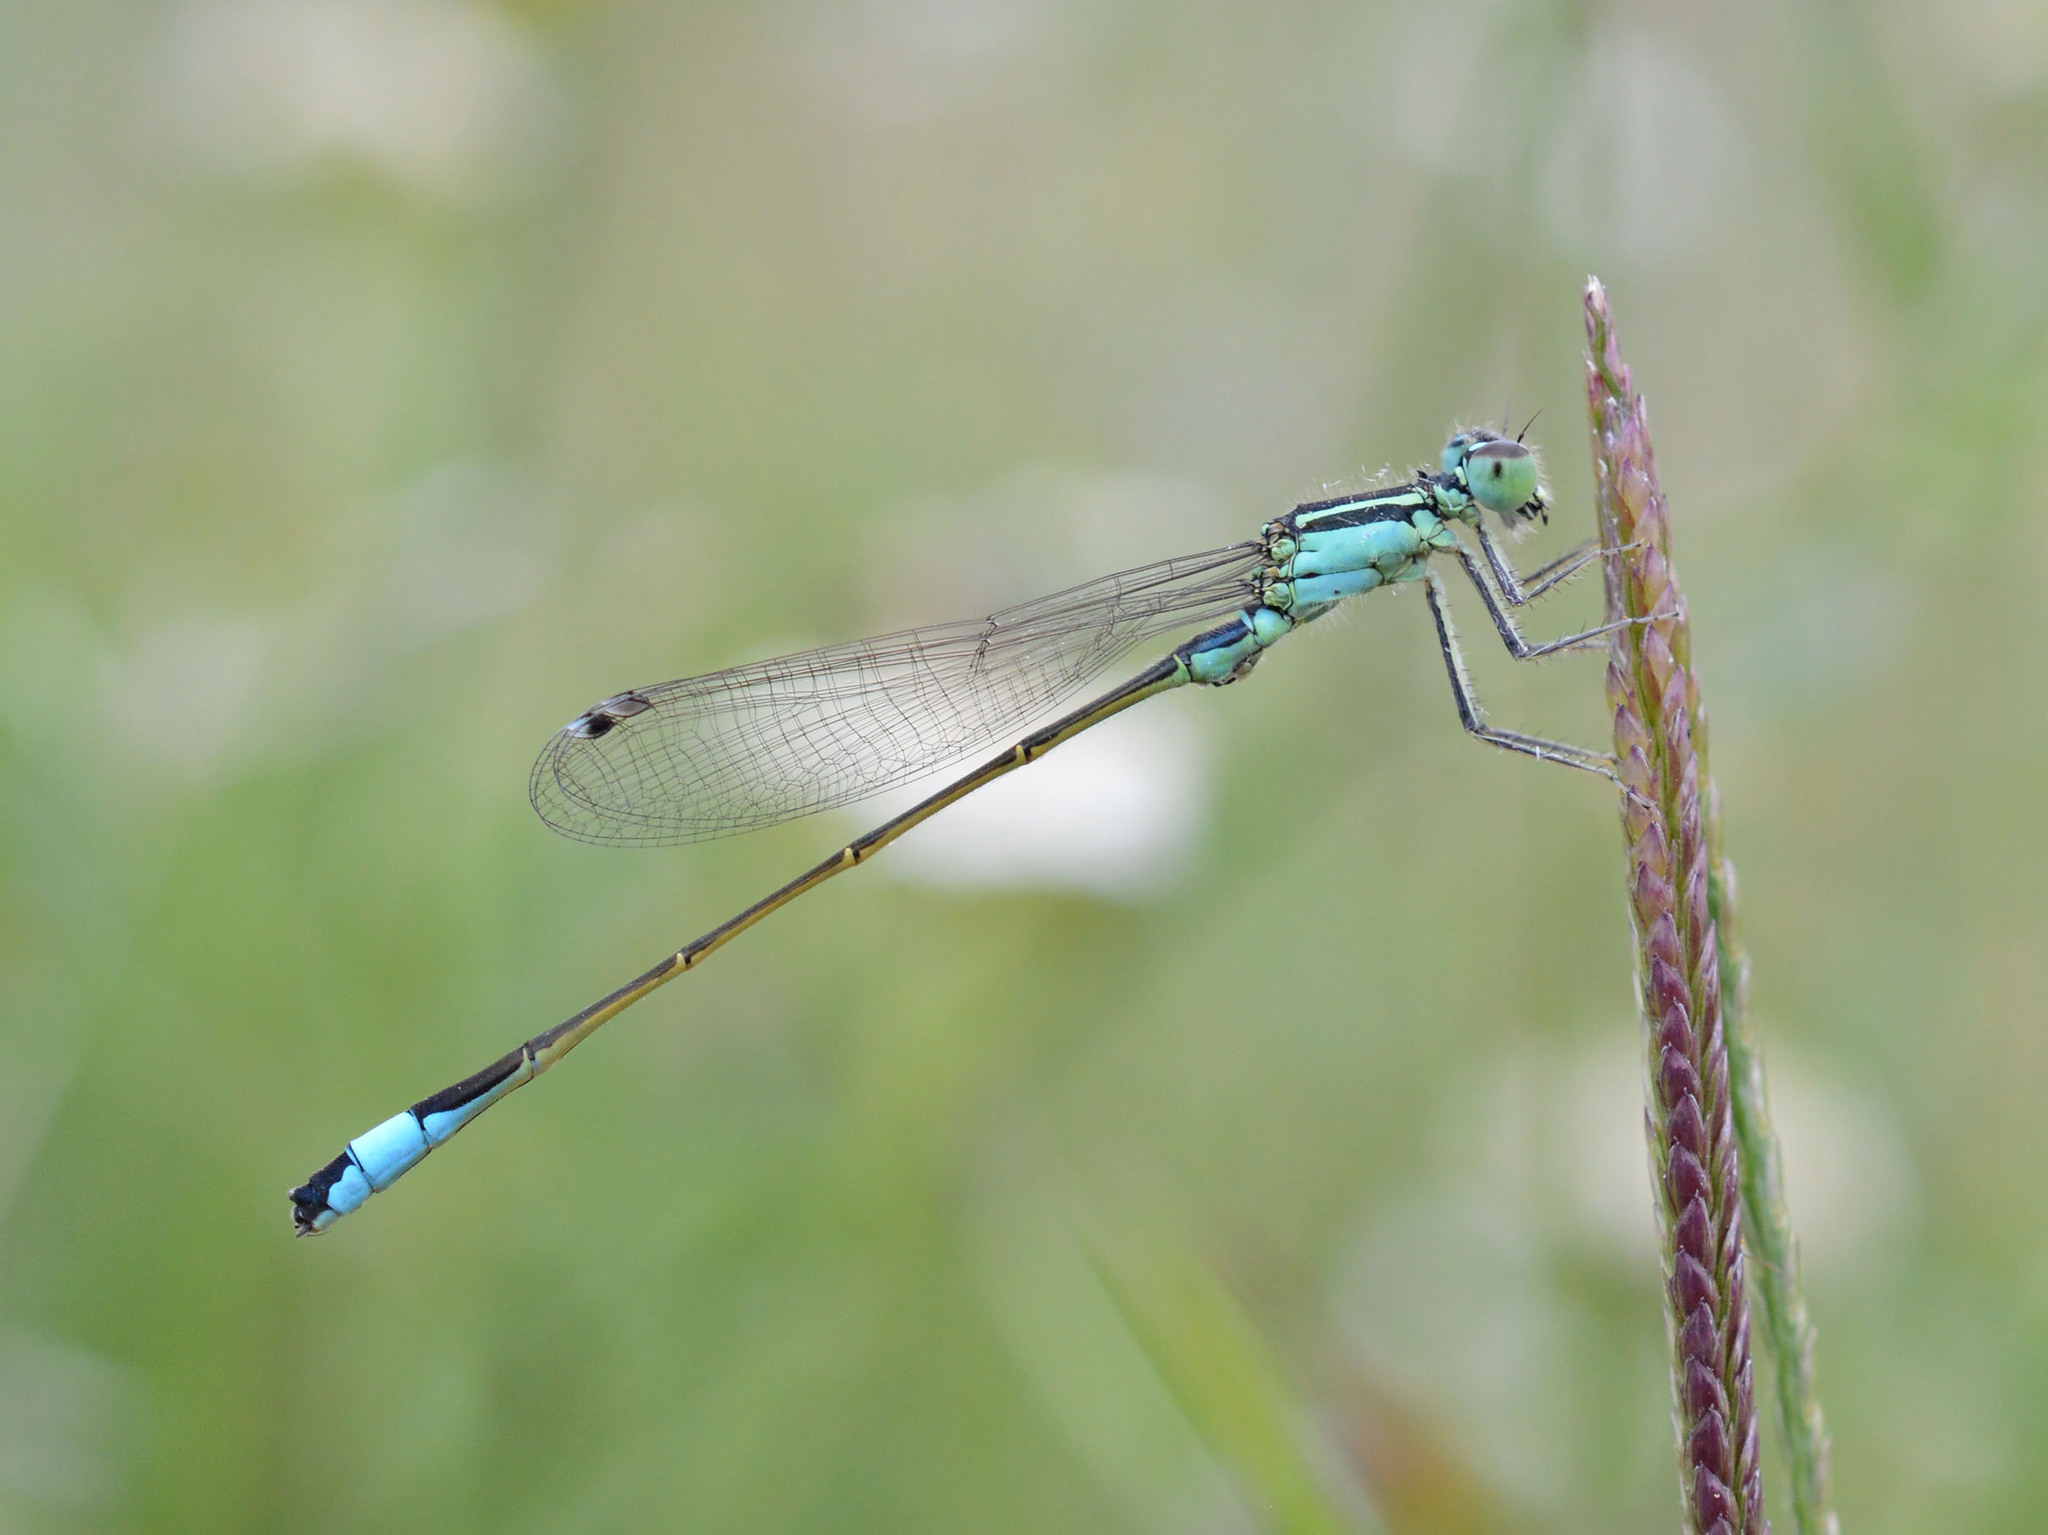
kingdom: Animalia
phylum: Arthropoda
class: Insecta
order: Odonata
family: Coenagrionidae
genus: Ischnura
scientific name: Ischnura elegans
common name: Blue-tailed damselfly
